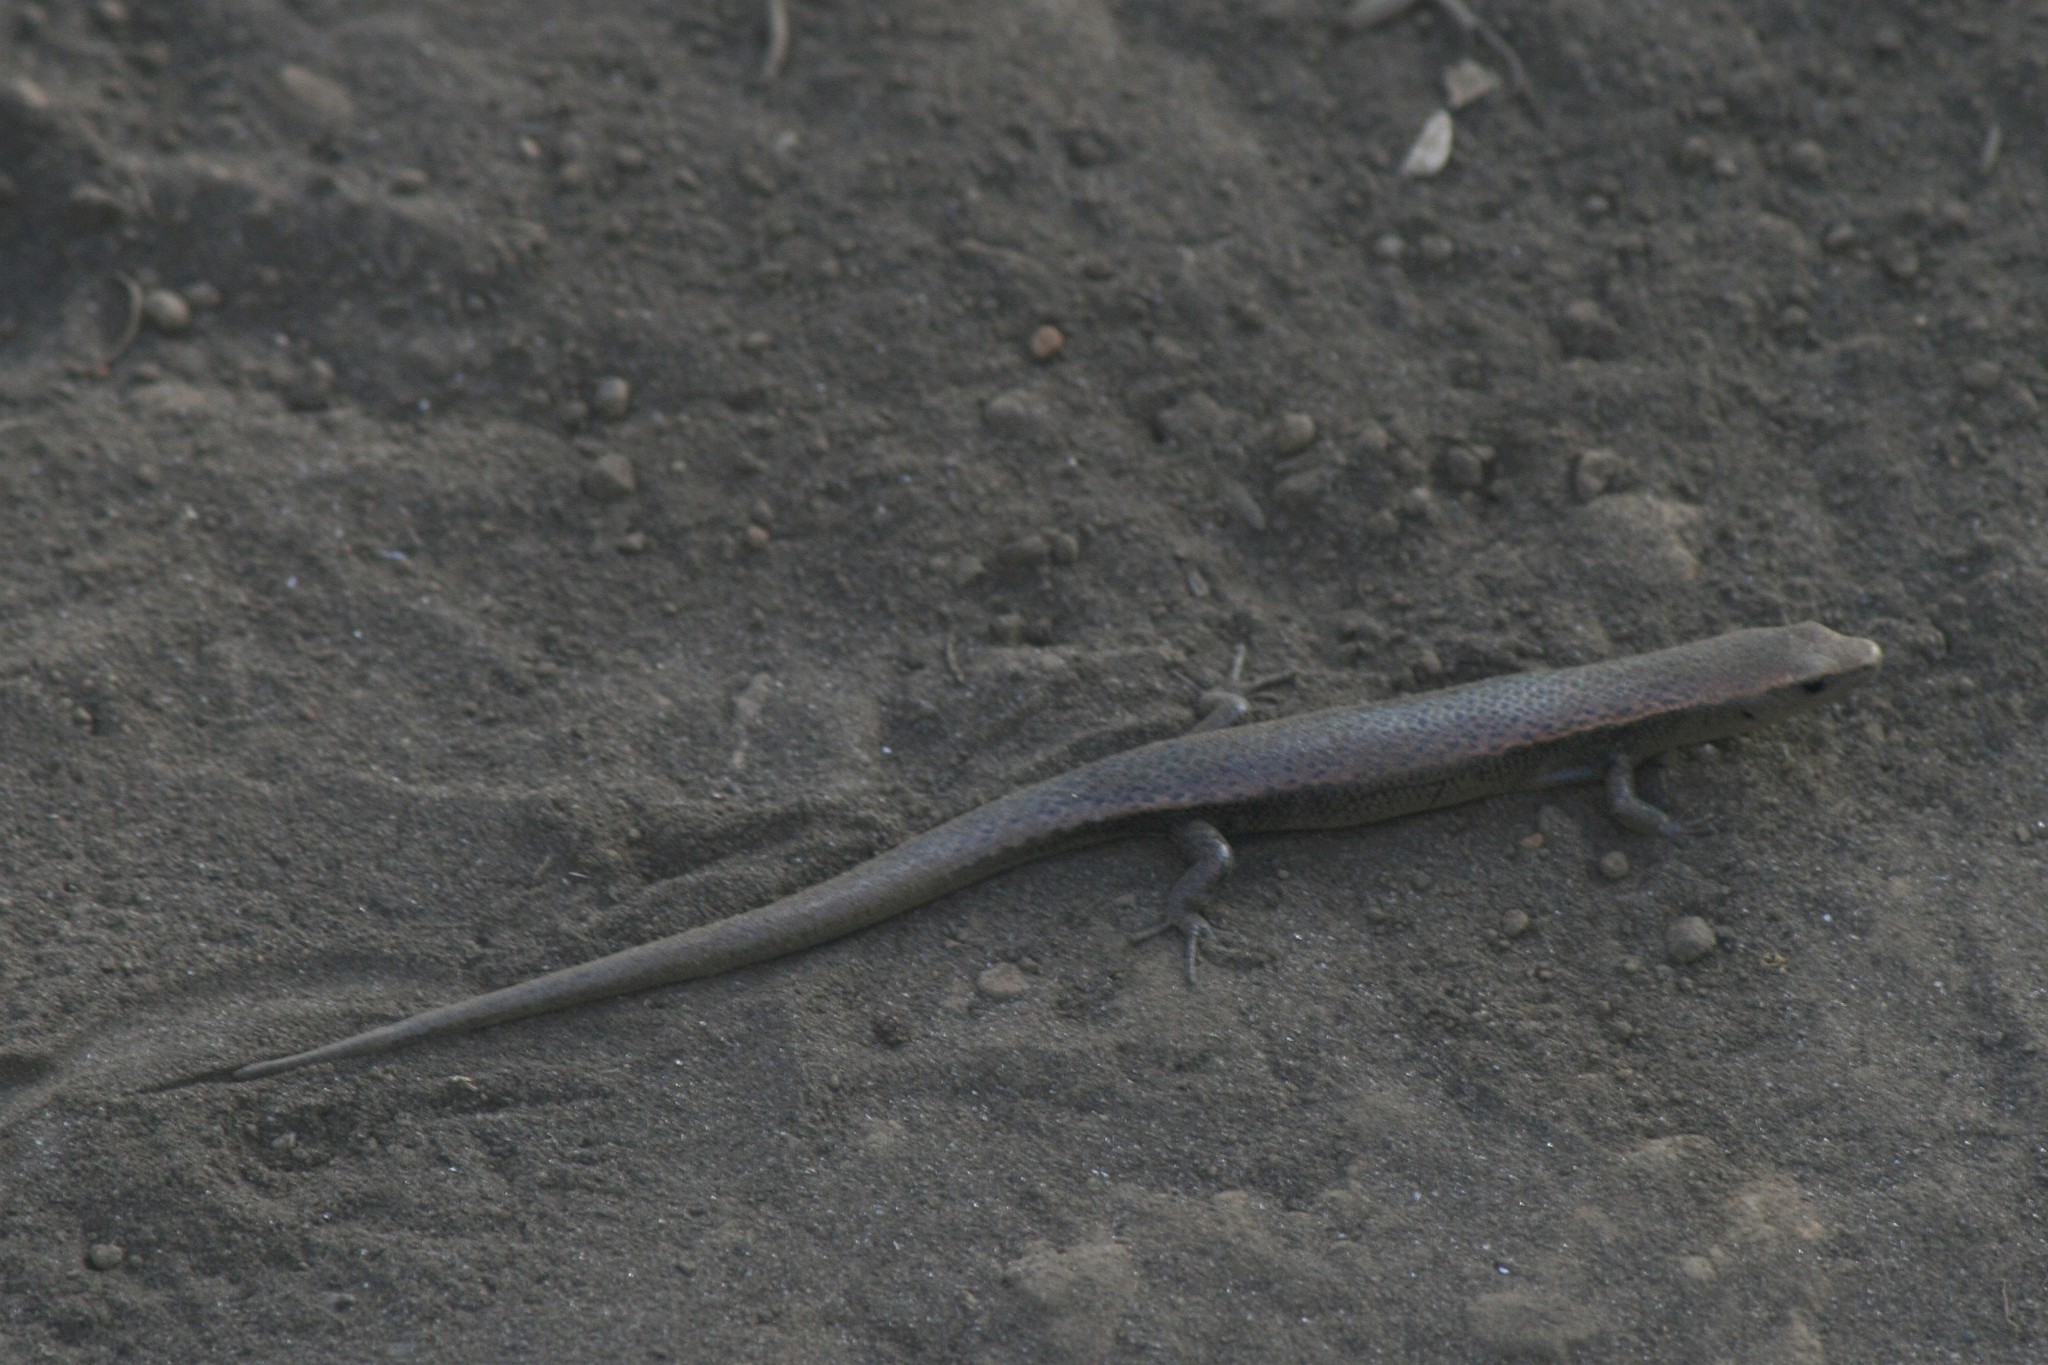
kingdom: Animalia
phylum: Chordata
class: Squamata
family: Scincidae
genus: Caledoniscincus
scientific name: Caledoniscincus atropunctatus
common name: Speckled litter skink
